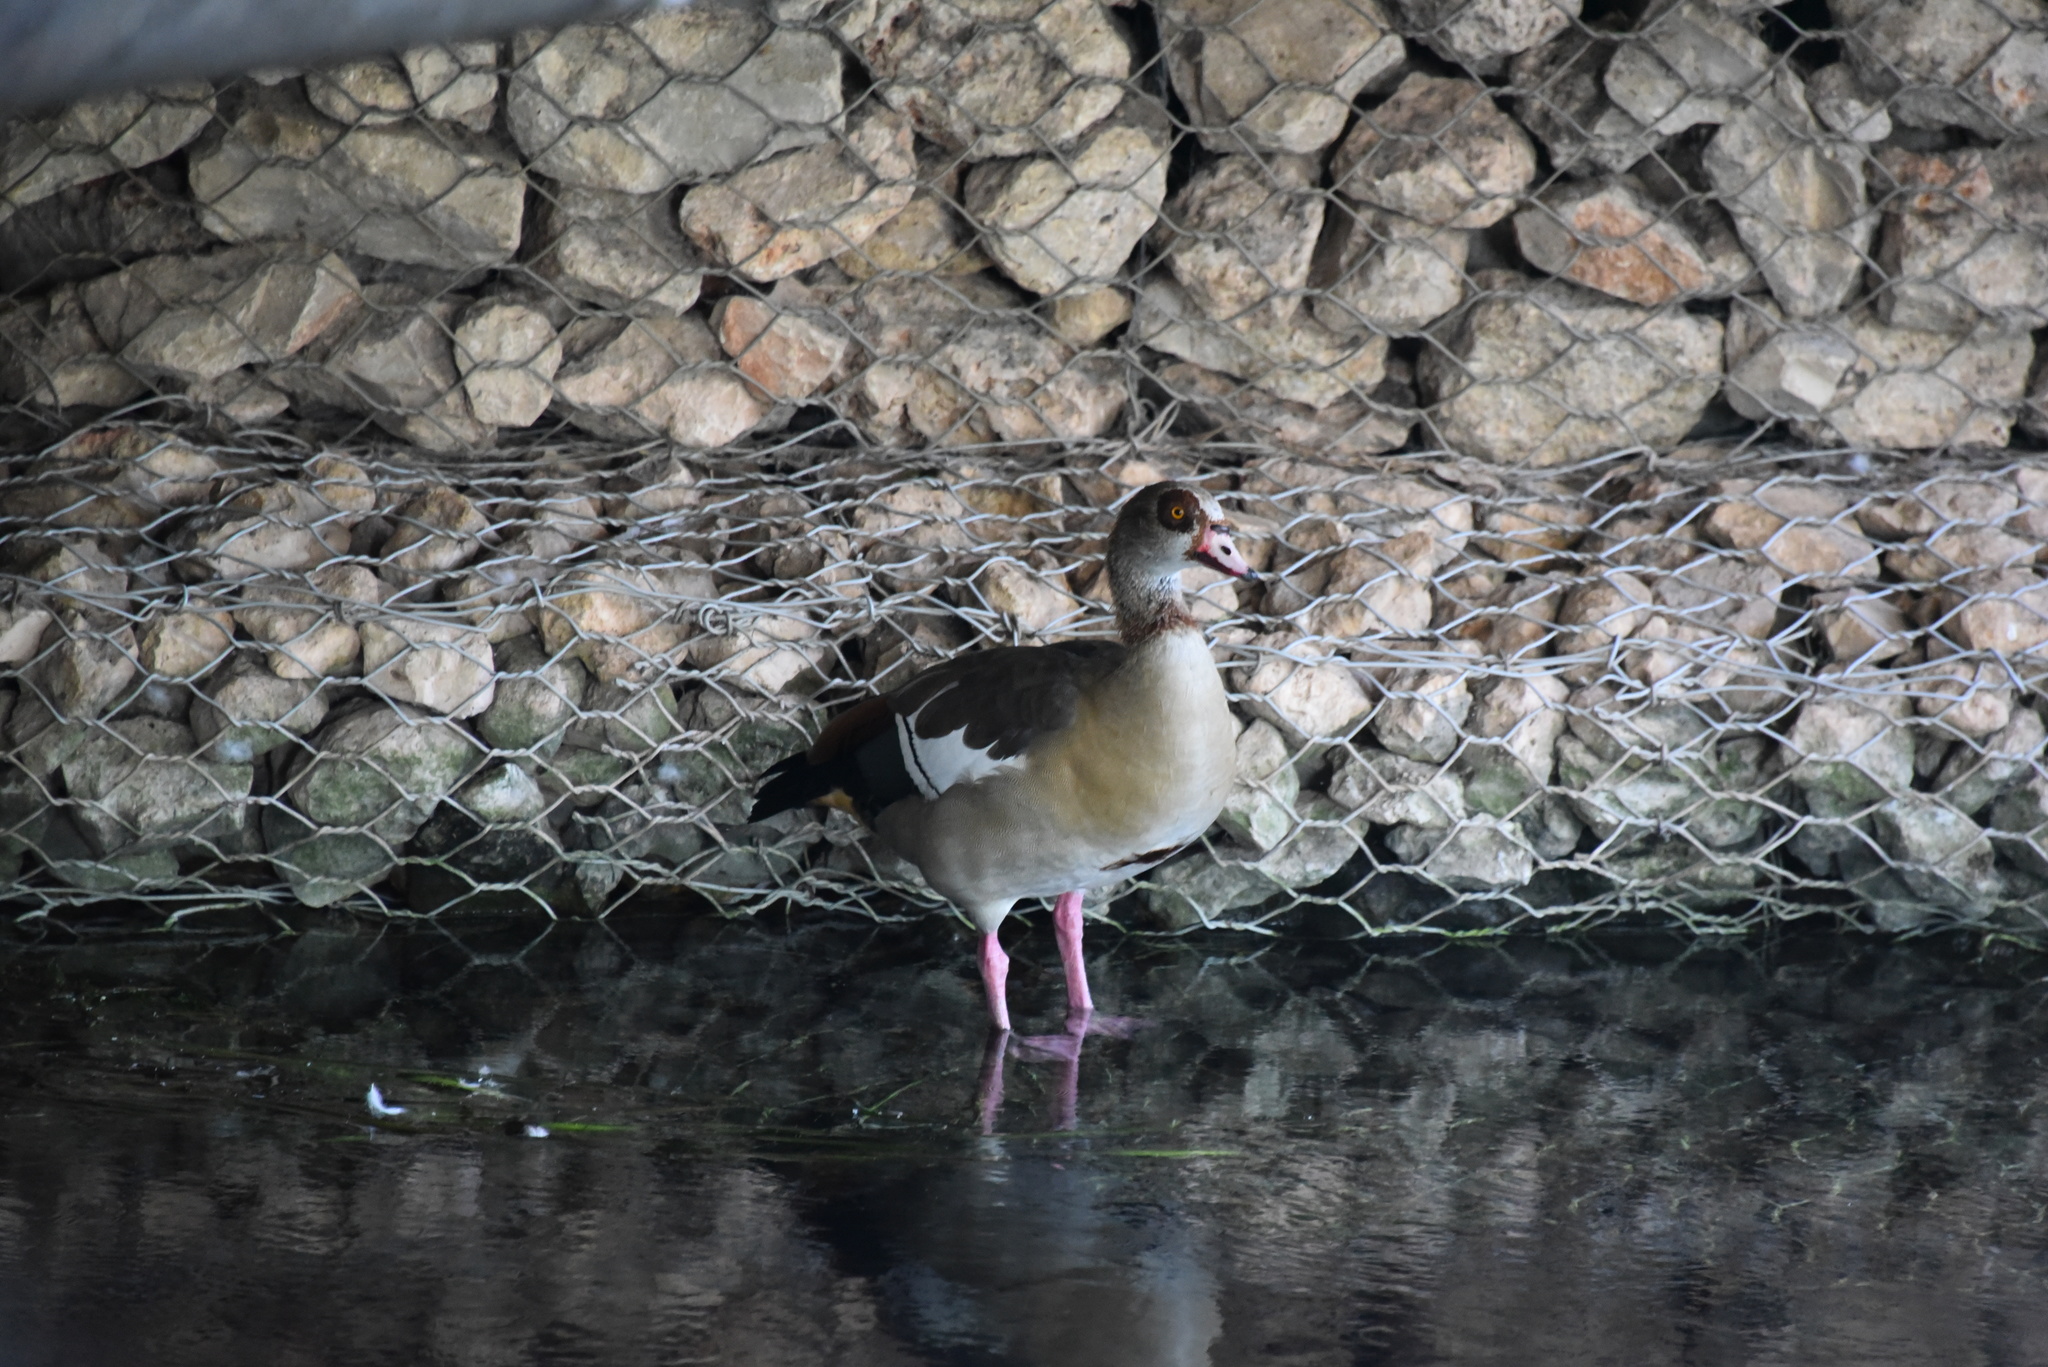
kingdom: Animalia
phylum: Chordata
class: Aves
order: Anseriformes
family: Anatidae
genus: Alopochen
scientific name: Alopochen aegyptiaca
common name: Egyptian goose
